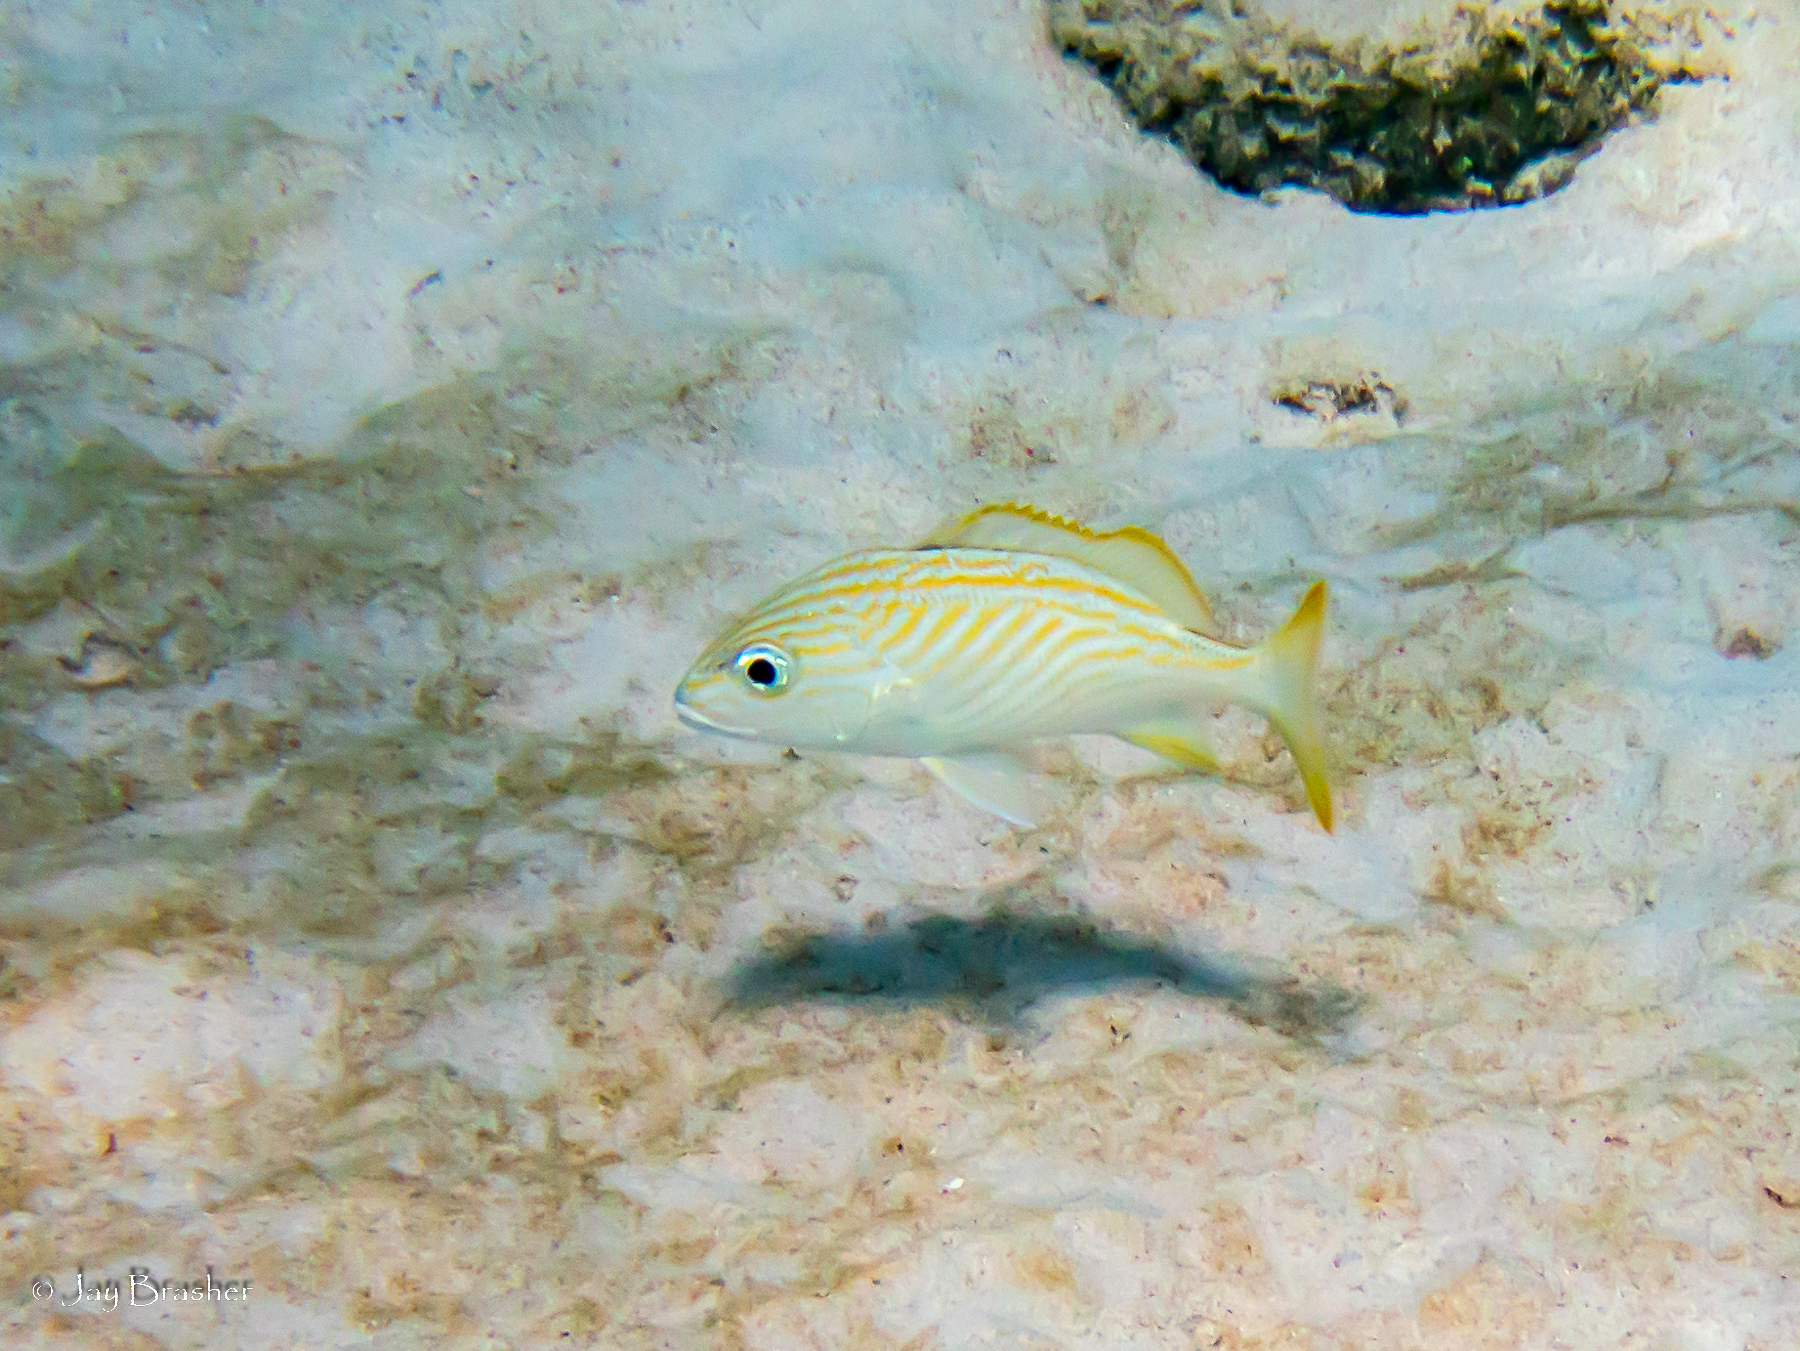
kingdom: Animalia
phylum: Chordata
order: Perciformes
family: Haemulidae
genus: Haemulon
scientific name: Haemulon flavolineatum
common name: French grunt
